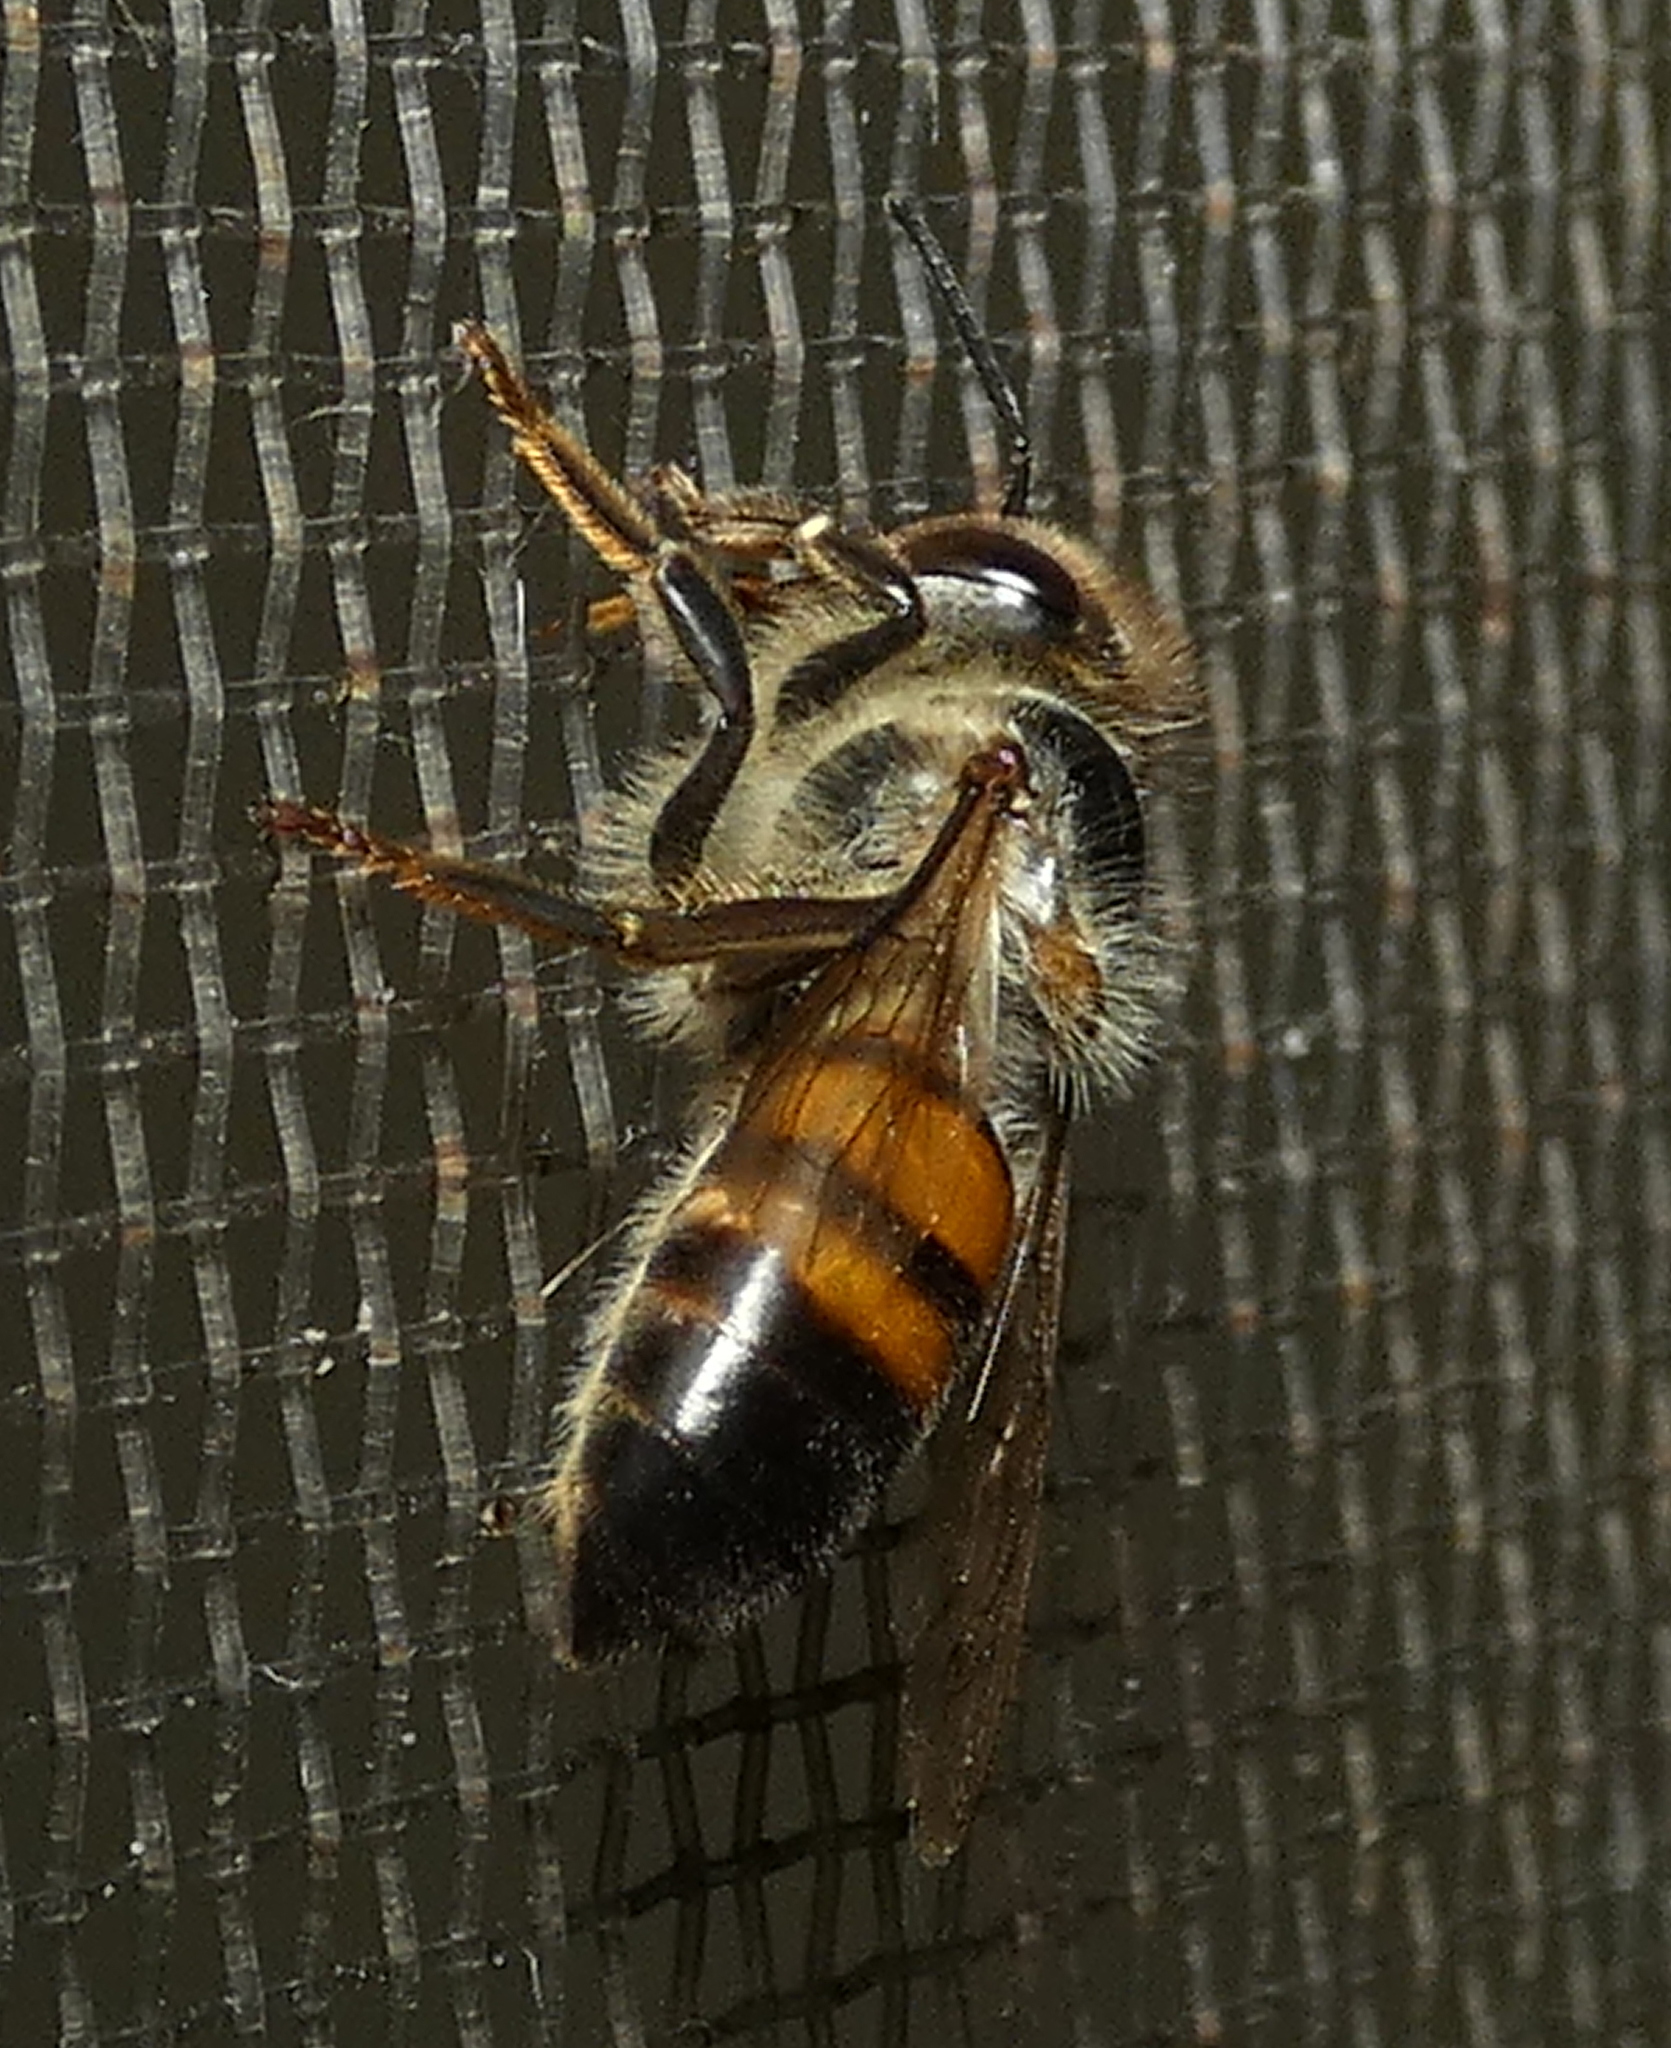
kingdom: Animalia
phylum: Arthropoda
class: Insecta
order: Hymenoptera
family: Apidae
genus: Apis
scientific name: Apis mellifera
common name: Honey bee
